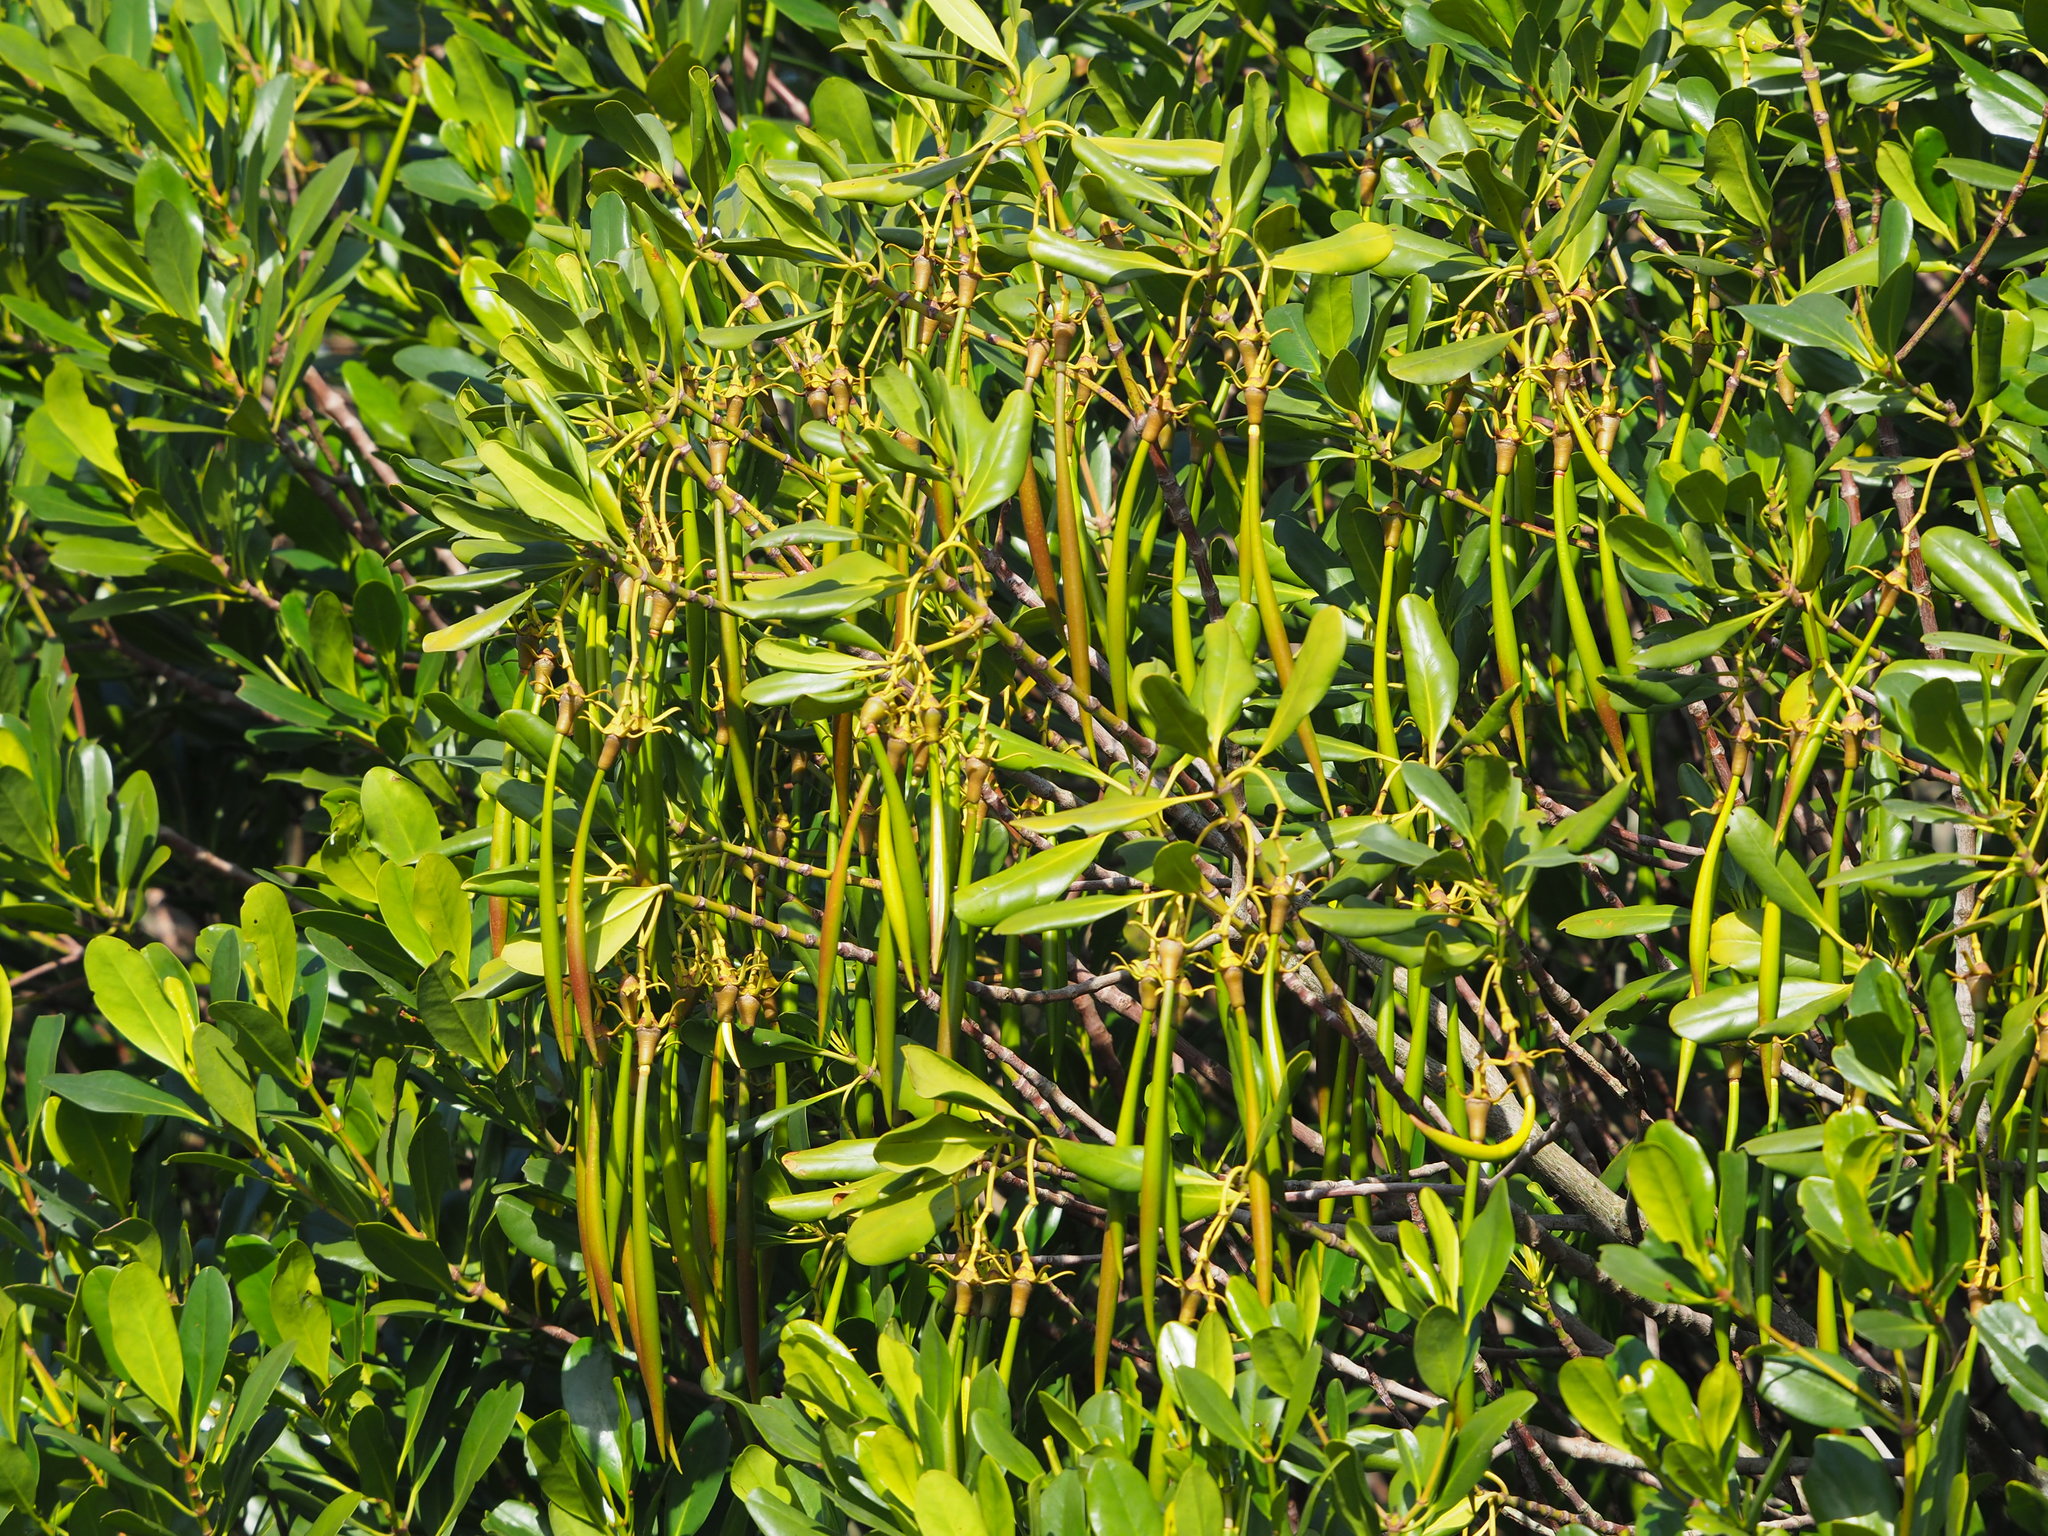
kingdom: Plantae
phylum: Tracheophyta
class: Magnoliopsida
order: Malpighiales
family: Rhizophoraceae
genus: Kandelia
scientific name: Kandelia obovata
